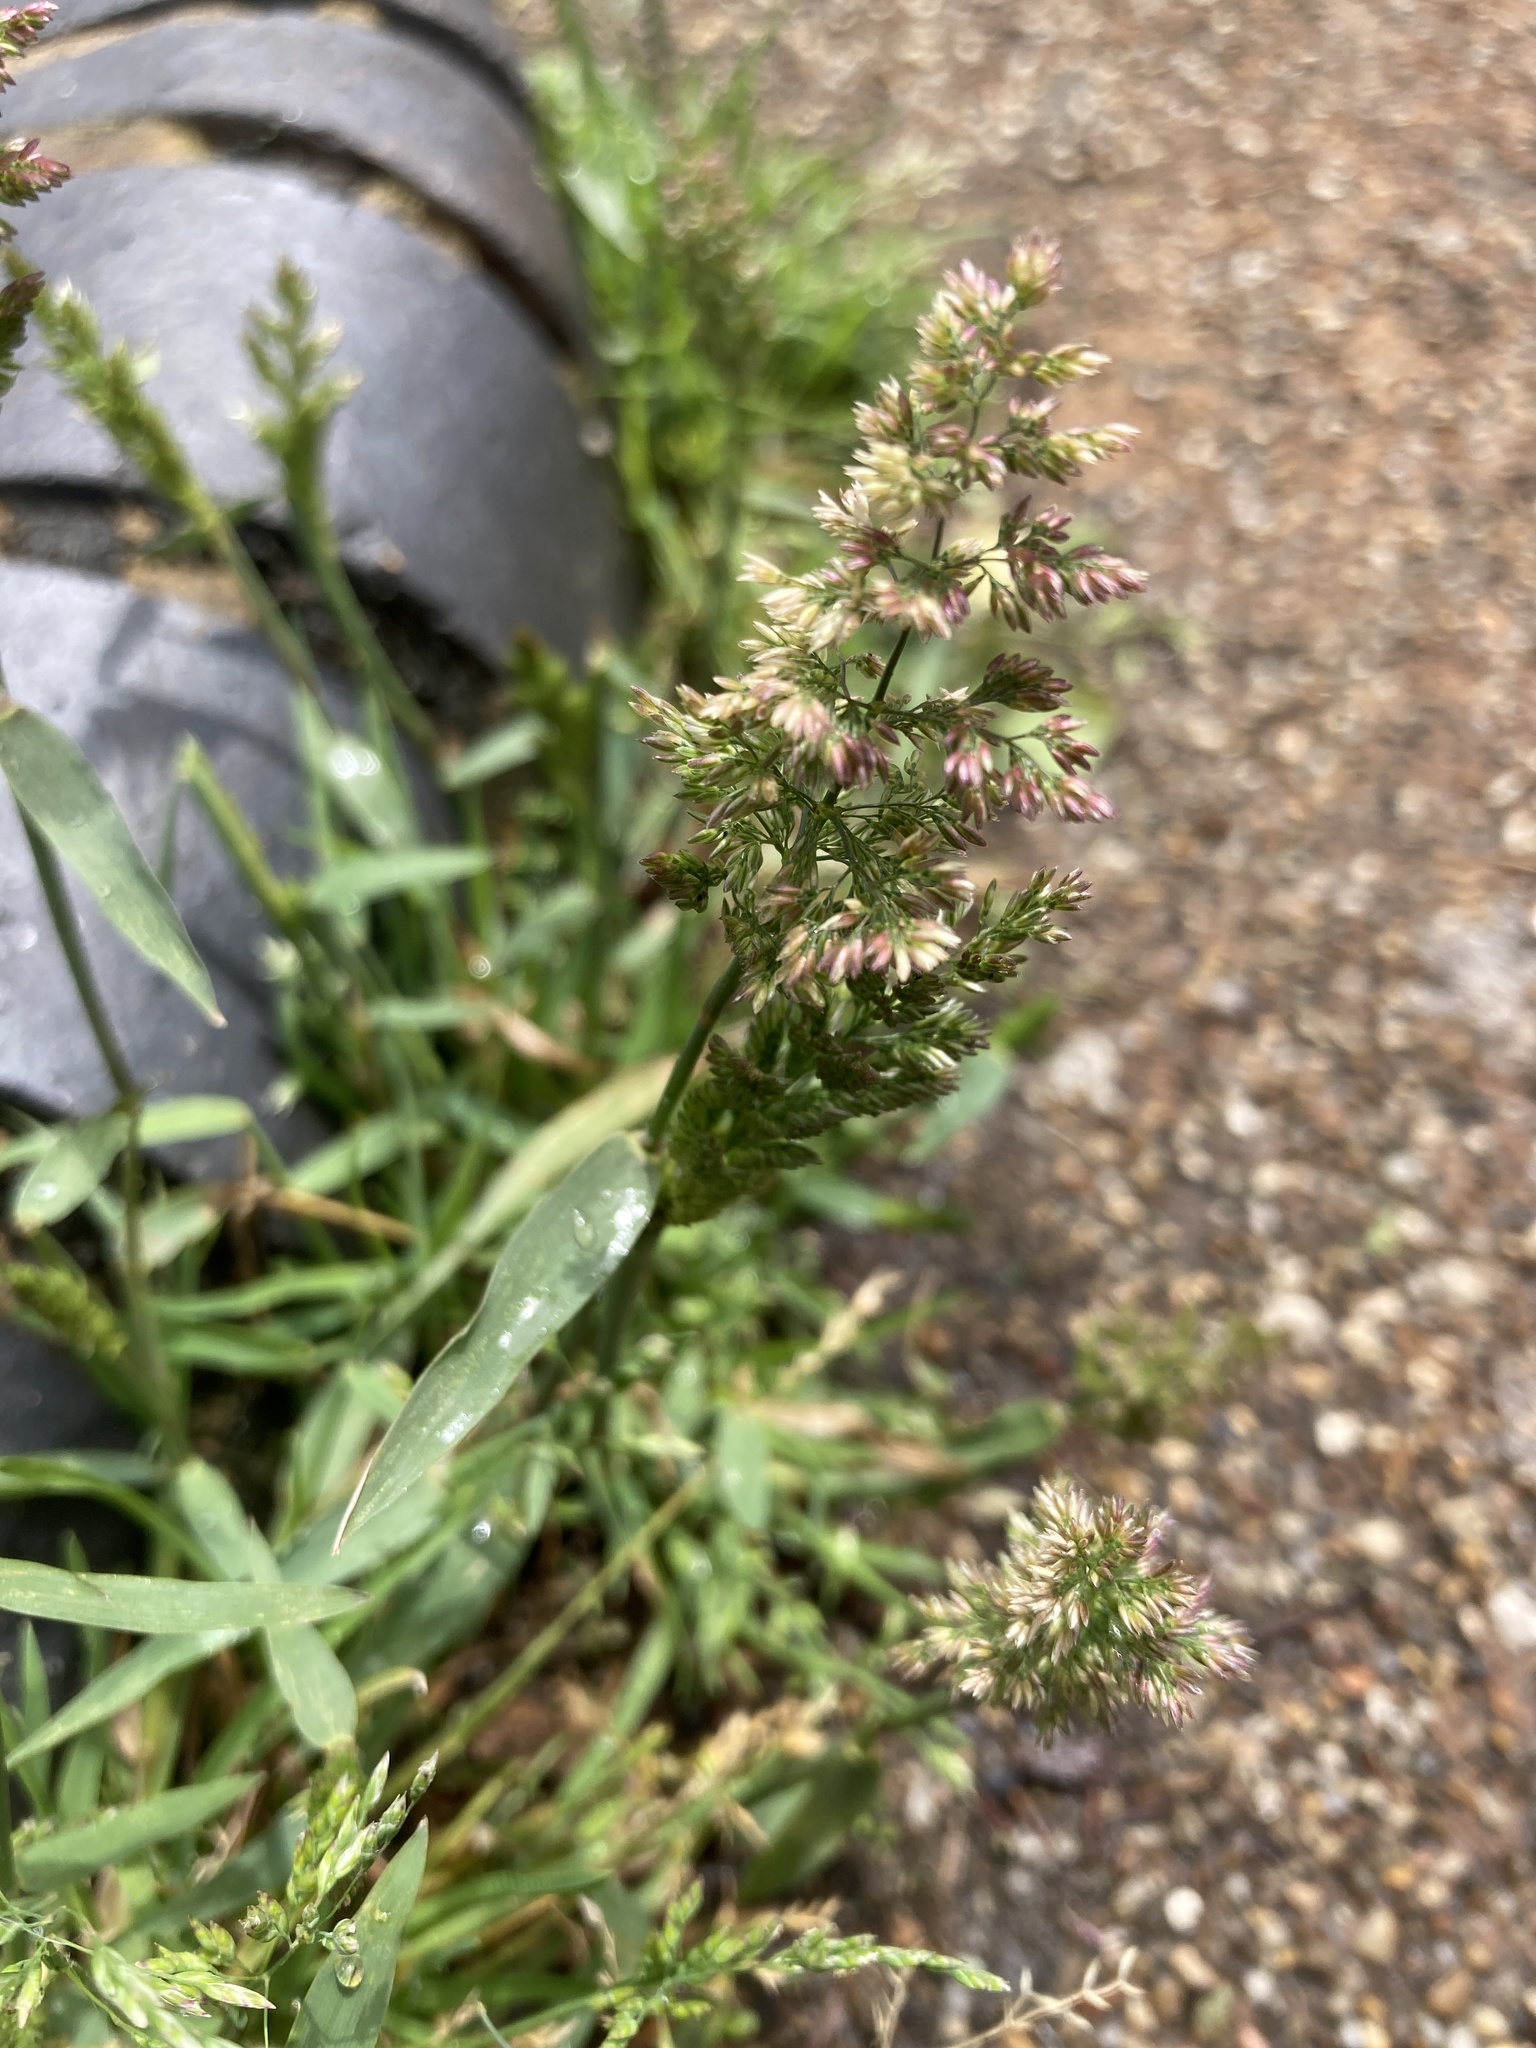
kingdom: Plantae
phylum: Tracheophyta
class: Liliopsida
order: Poales
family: Poaceae
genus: Polypogon
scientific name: Polypogon viridis
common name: Water bent
